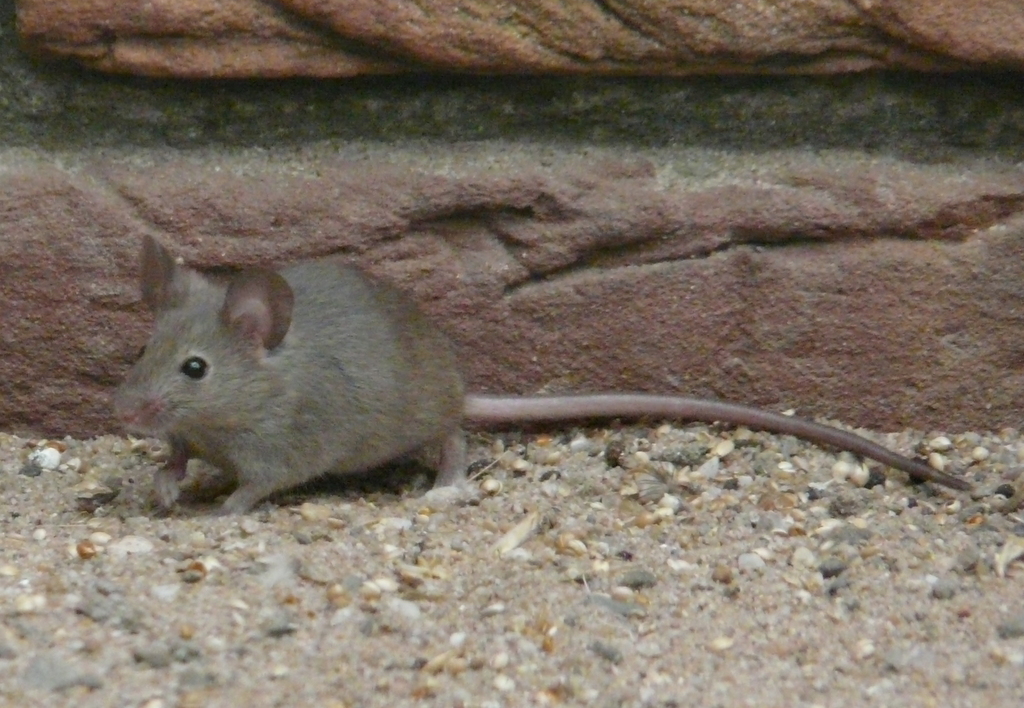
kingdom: Animalia
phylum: Chordata
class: Mammalia
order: Rodentia
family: Muridae
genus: Mus
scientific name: Mus musculus
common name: House mouse
